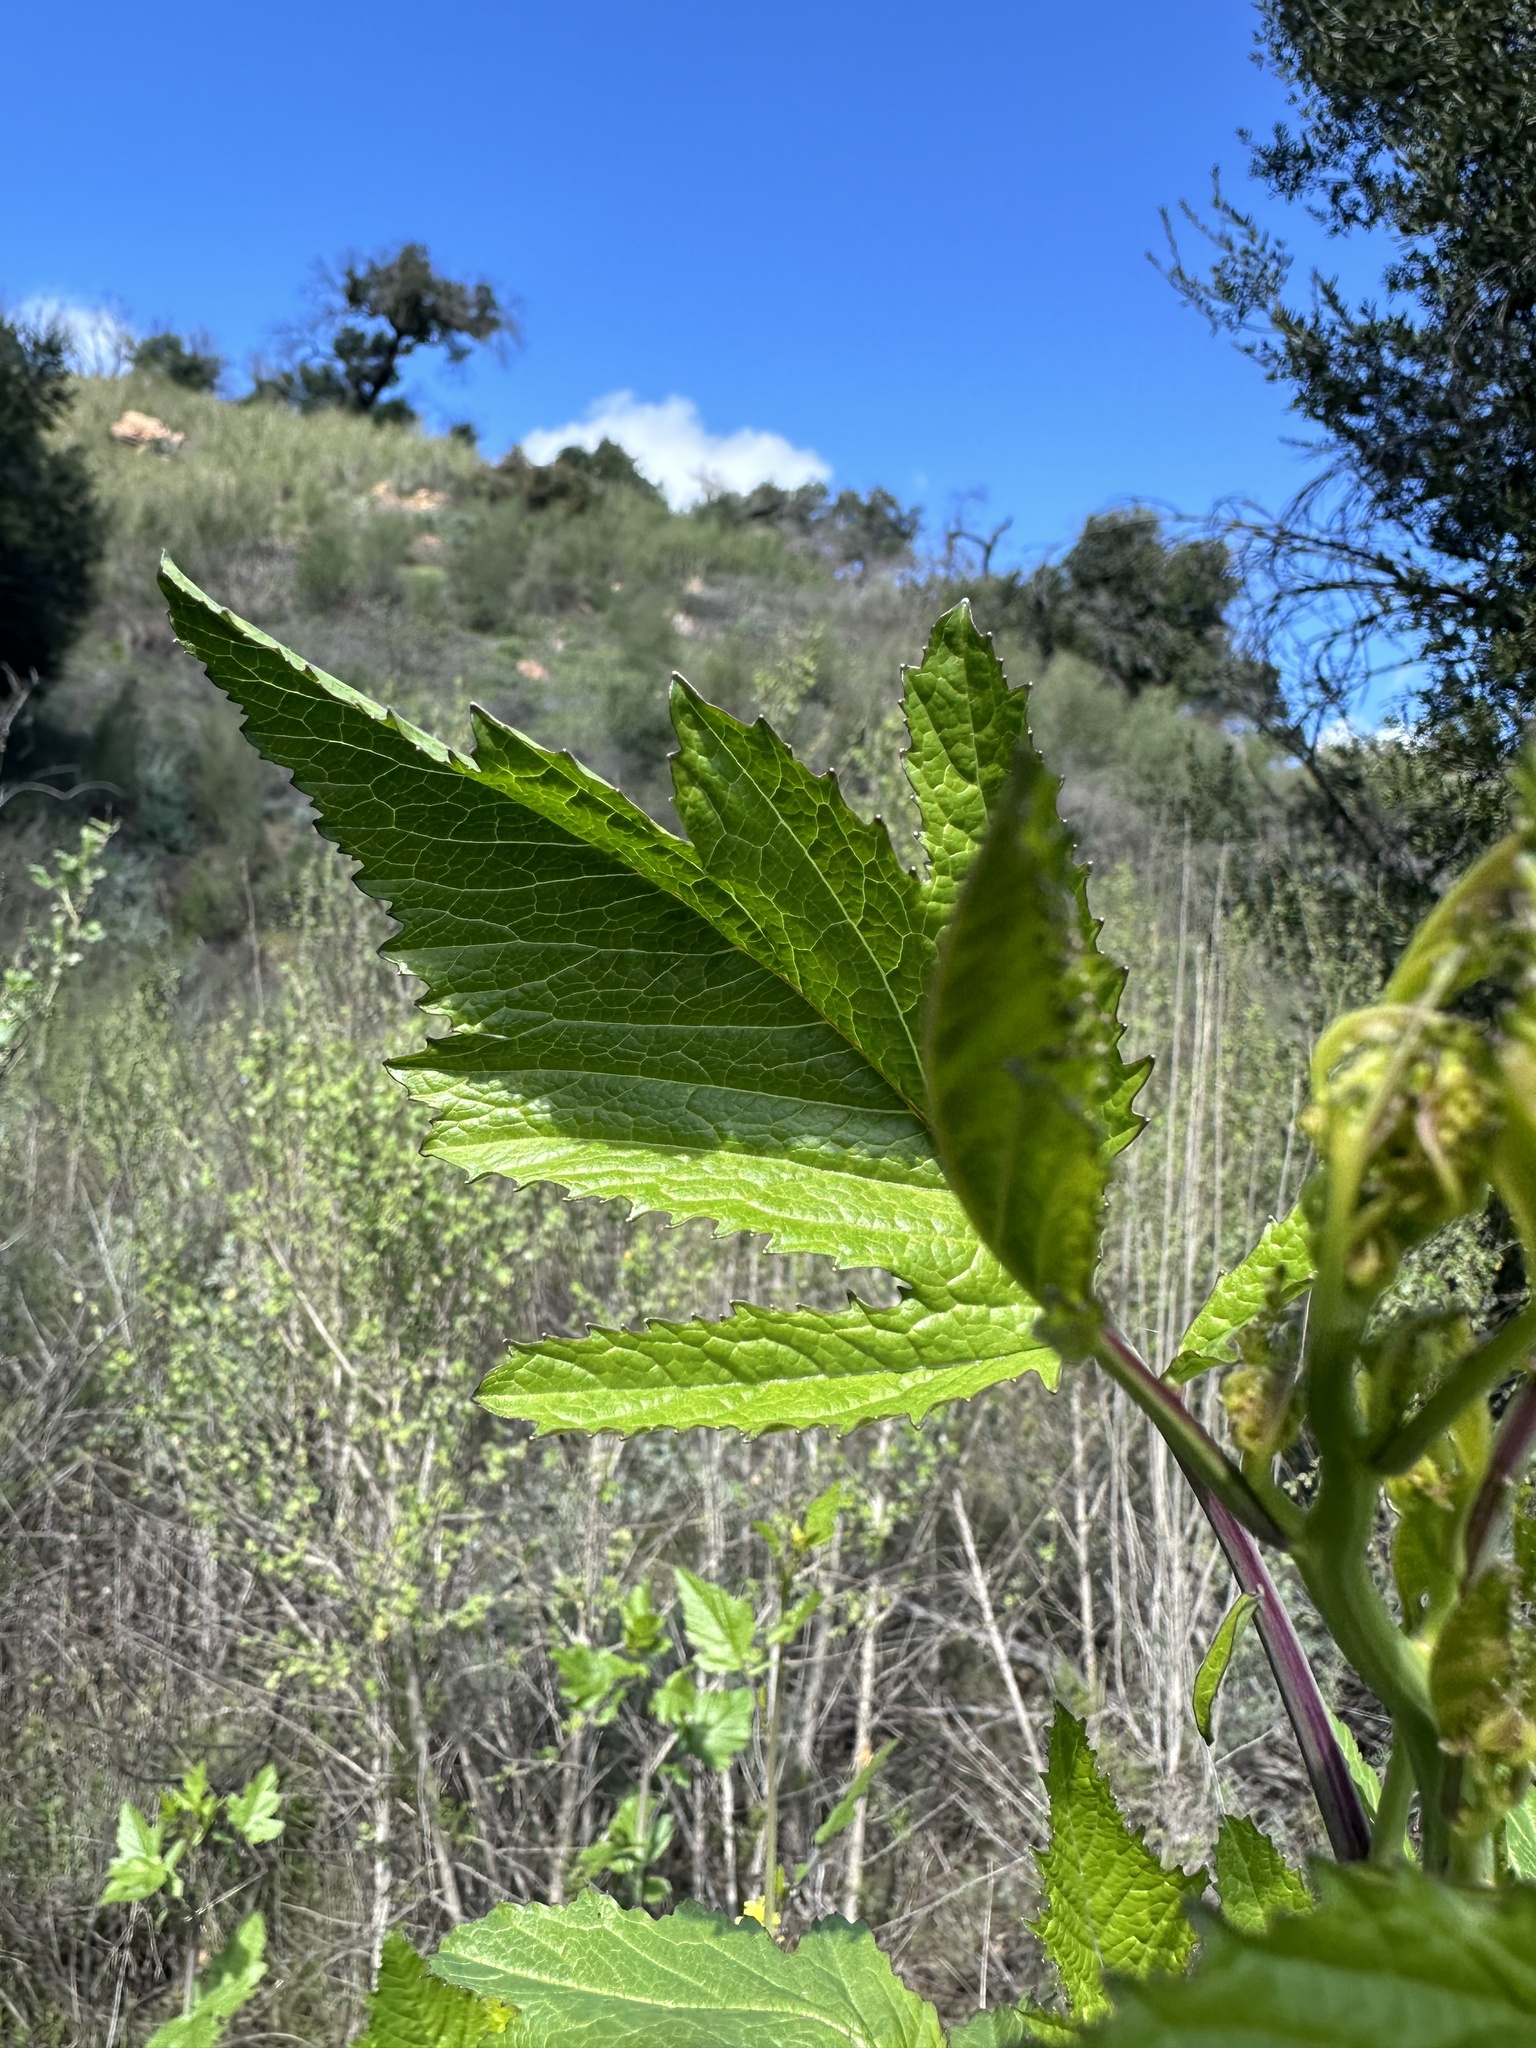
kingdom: Plantae
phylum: Tracheophyta
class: Magnoliopsida
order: Brassicales
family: Brassicaceae
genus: Brassica
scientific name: Brassica nigra
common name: Black mustard
